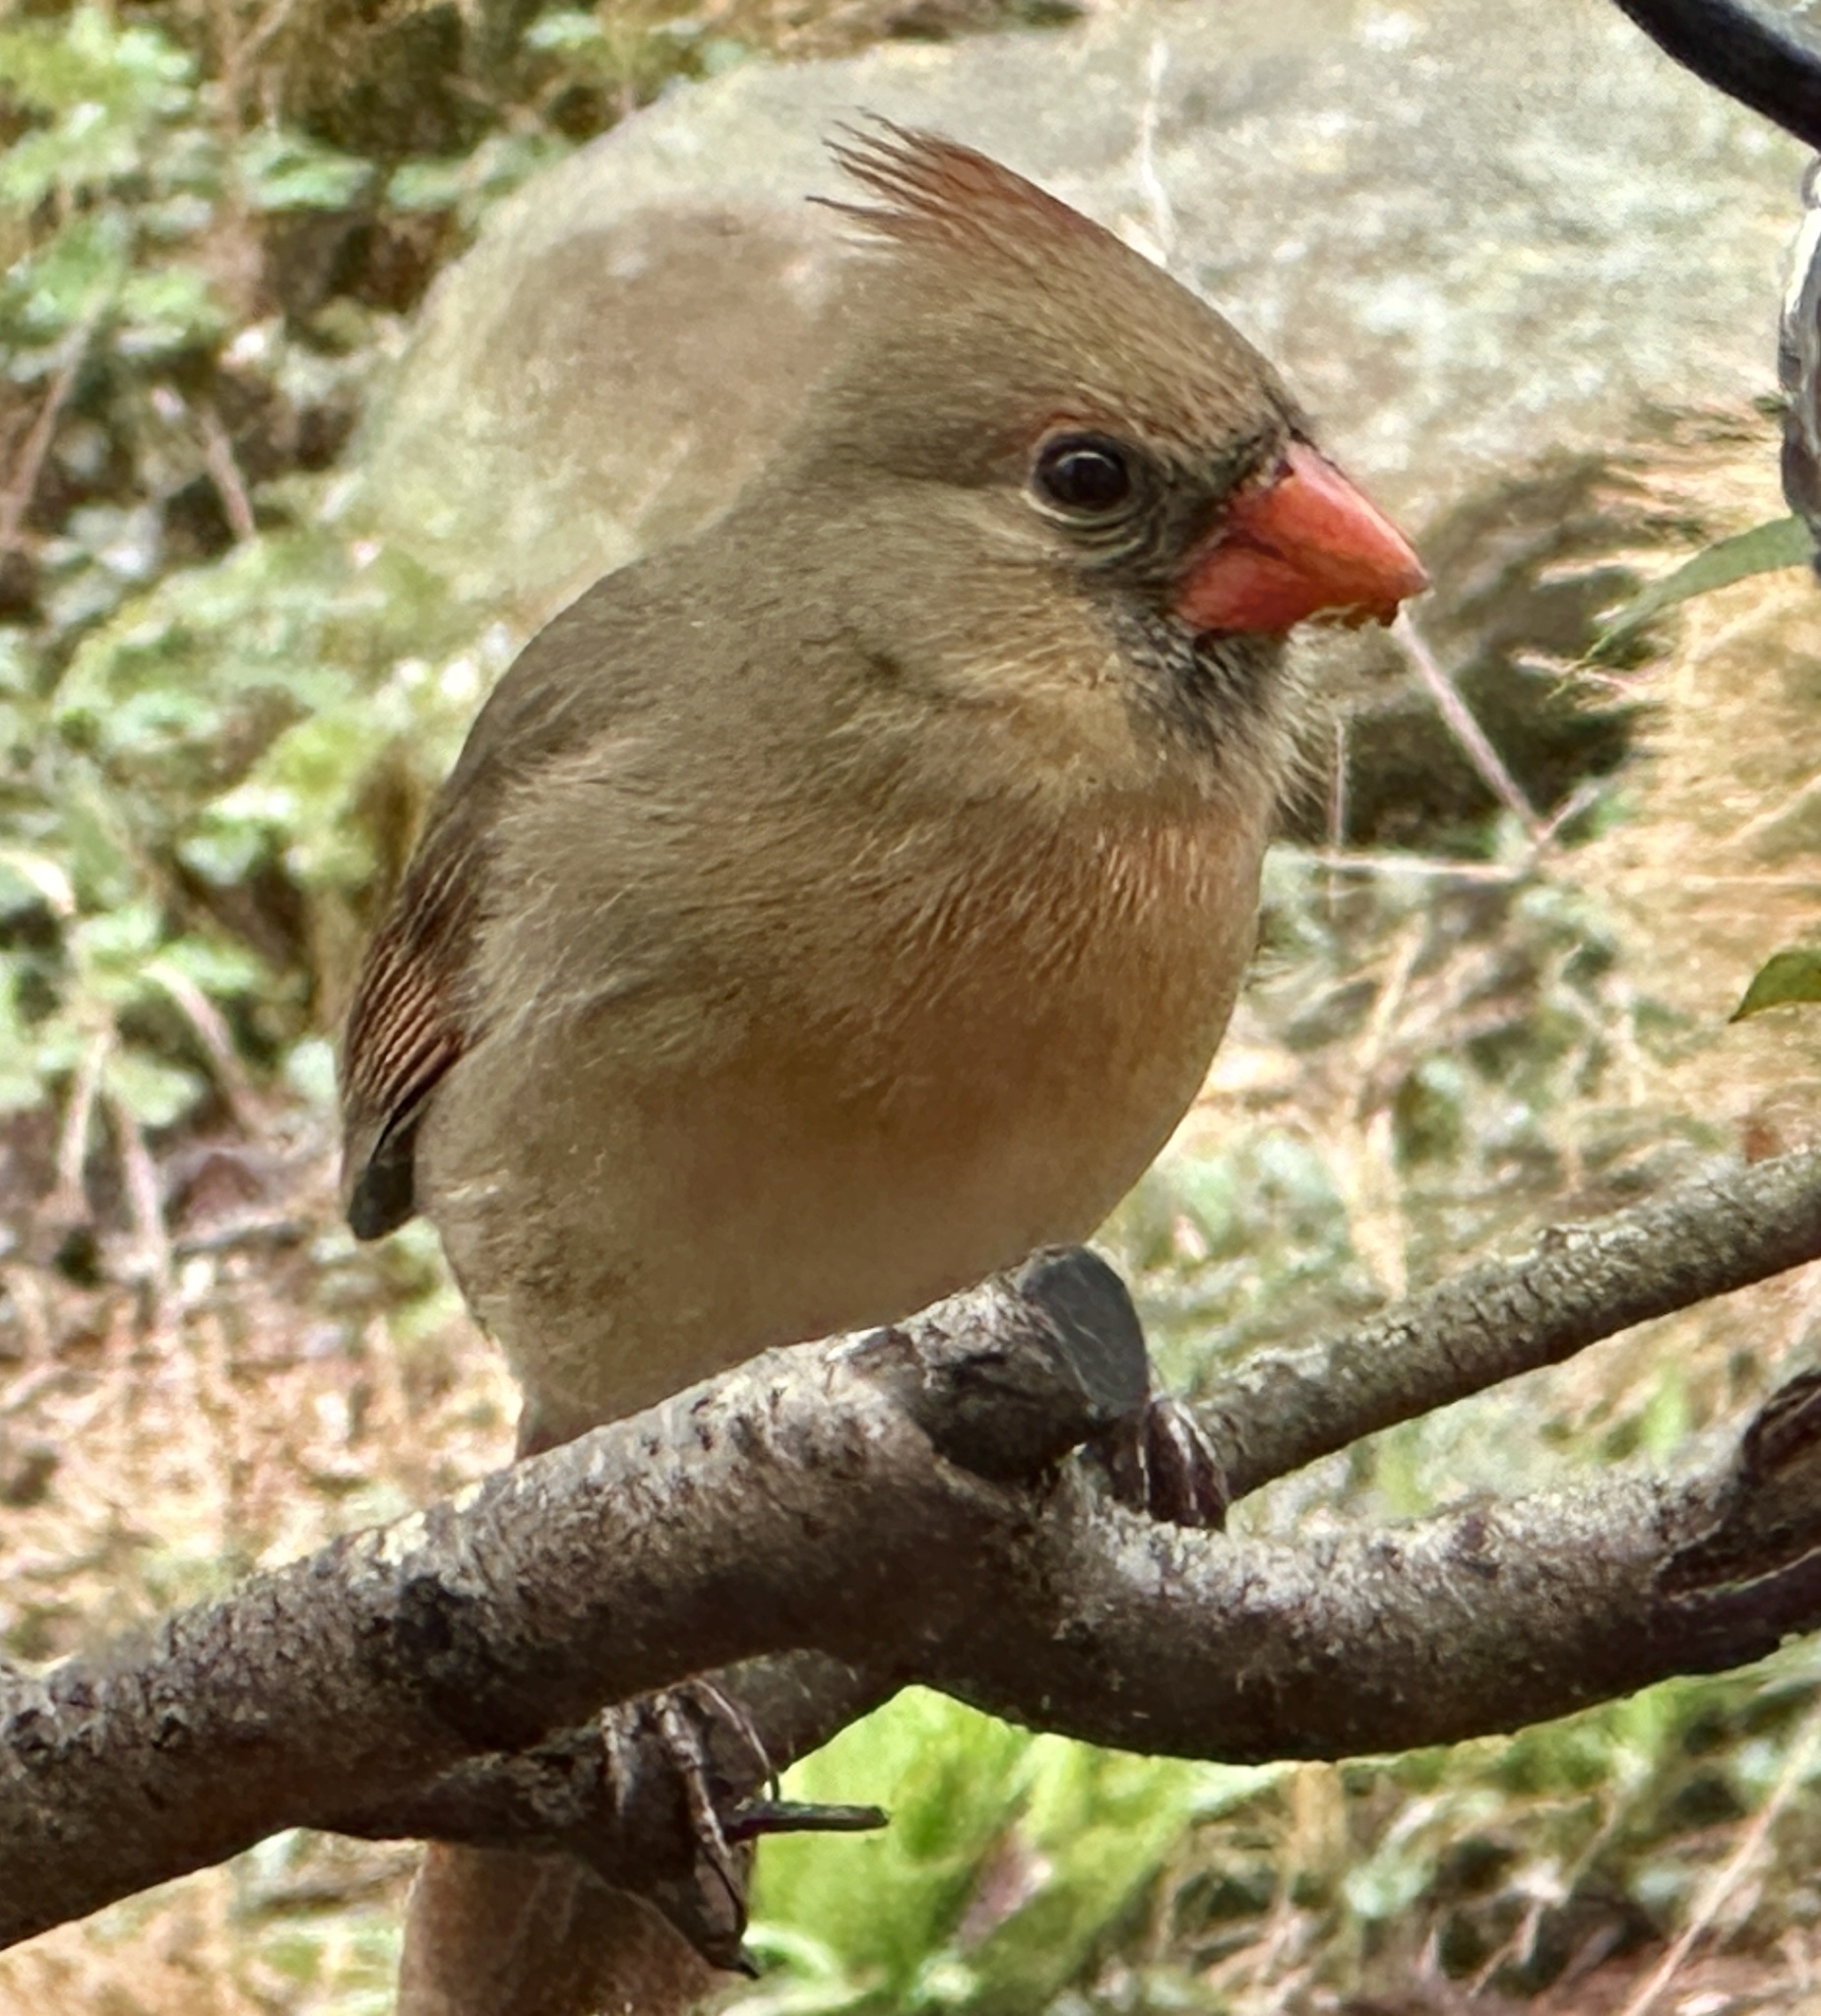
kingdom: Animalia
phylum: Chordata
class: Aves
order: Passeriformes
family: Cardinalidae
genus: Cardinalis
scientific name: Cardinalis cardinalis
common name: Northern cardinal
